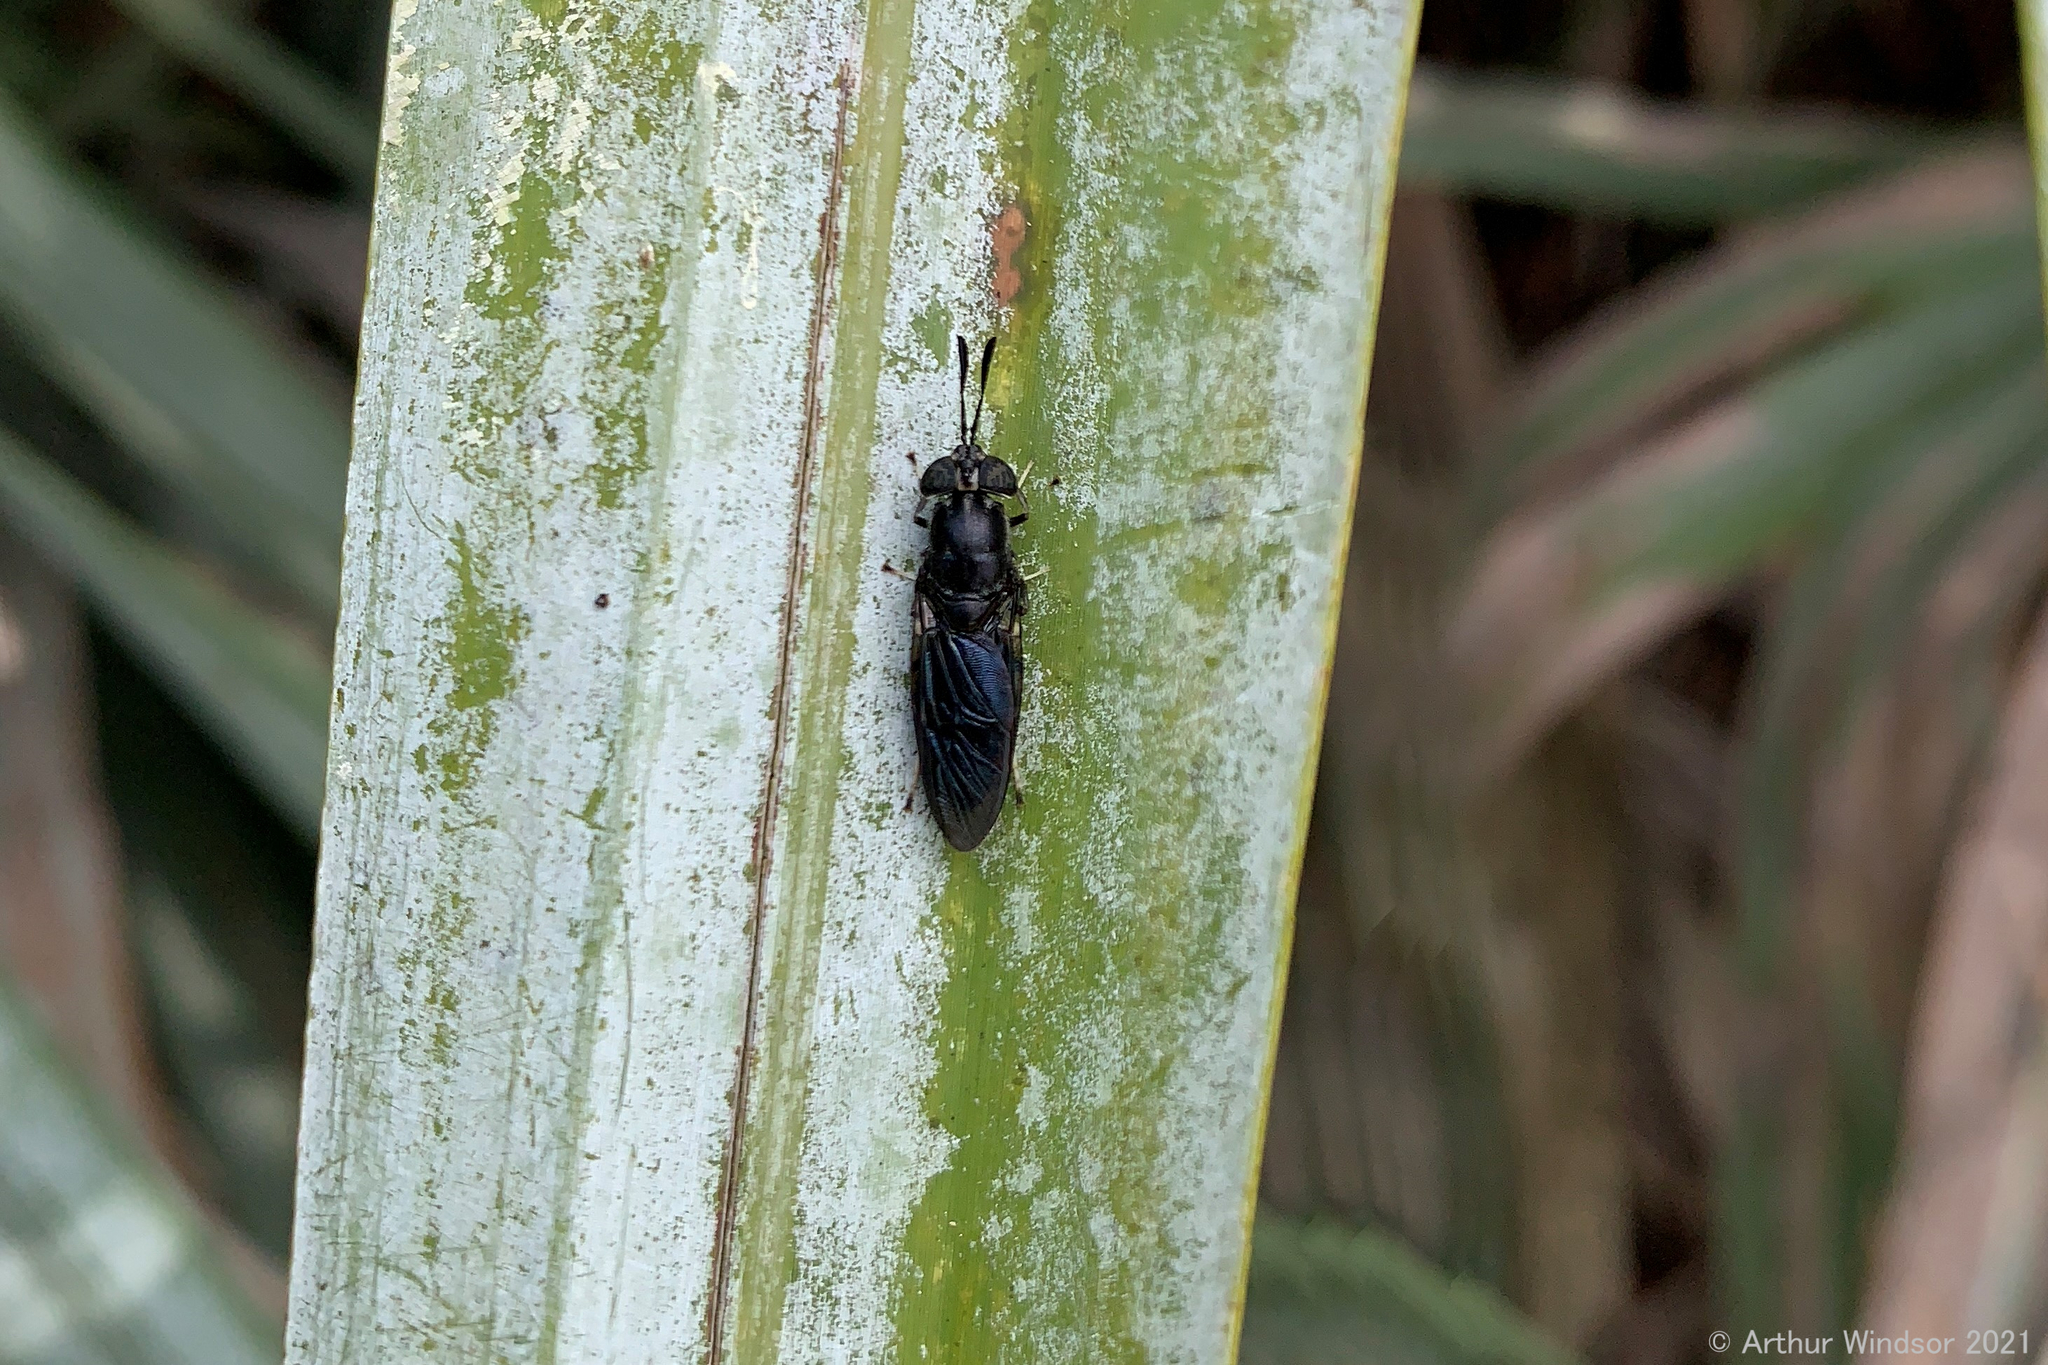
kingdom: Animalia
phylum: Arthropoda
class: Insecta
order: Diptera
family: Stratiomyidae
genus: Hermetia
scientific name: Hermetia sexmaculata
